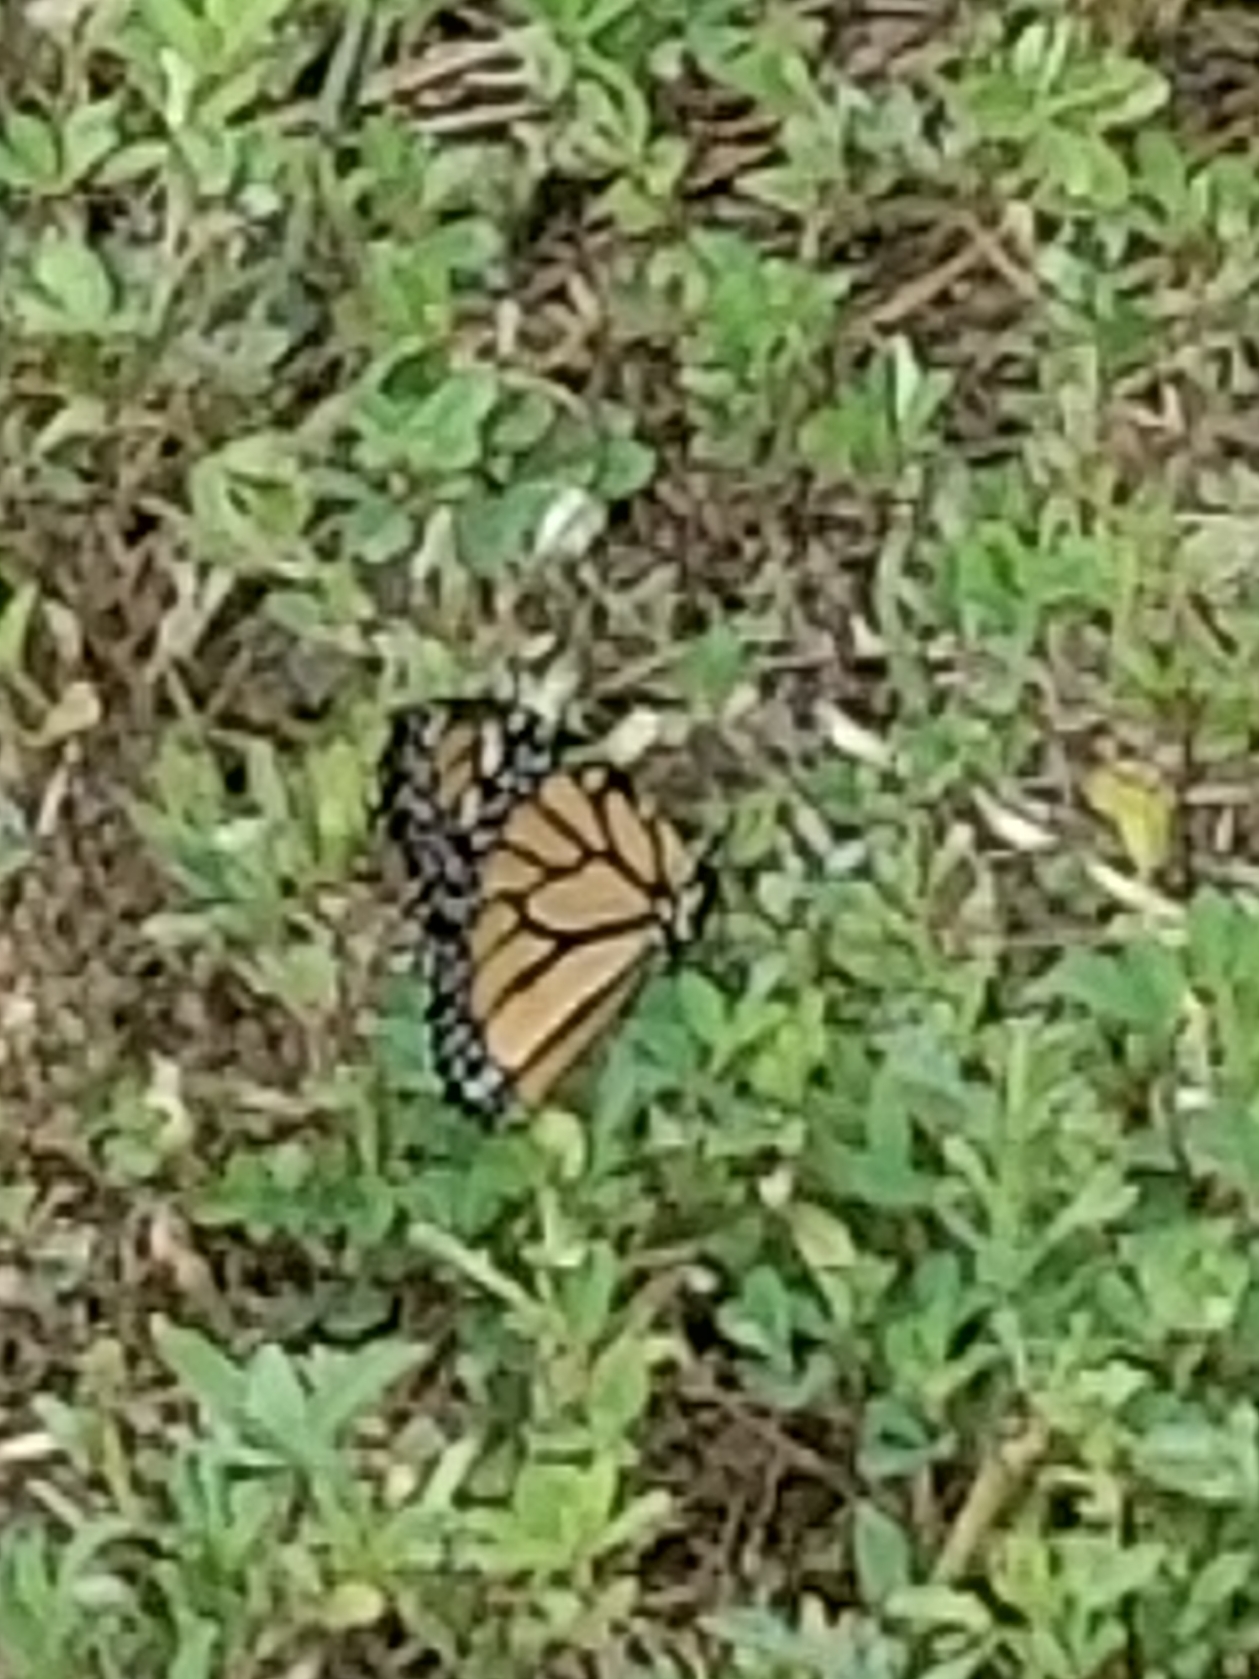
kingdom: Animalia
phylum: Arthropoda
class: Insecta
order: Lepidoptera
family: Nymphalidae
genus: Danaus
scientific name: Danaus plexippus
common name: Monarch
